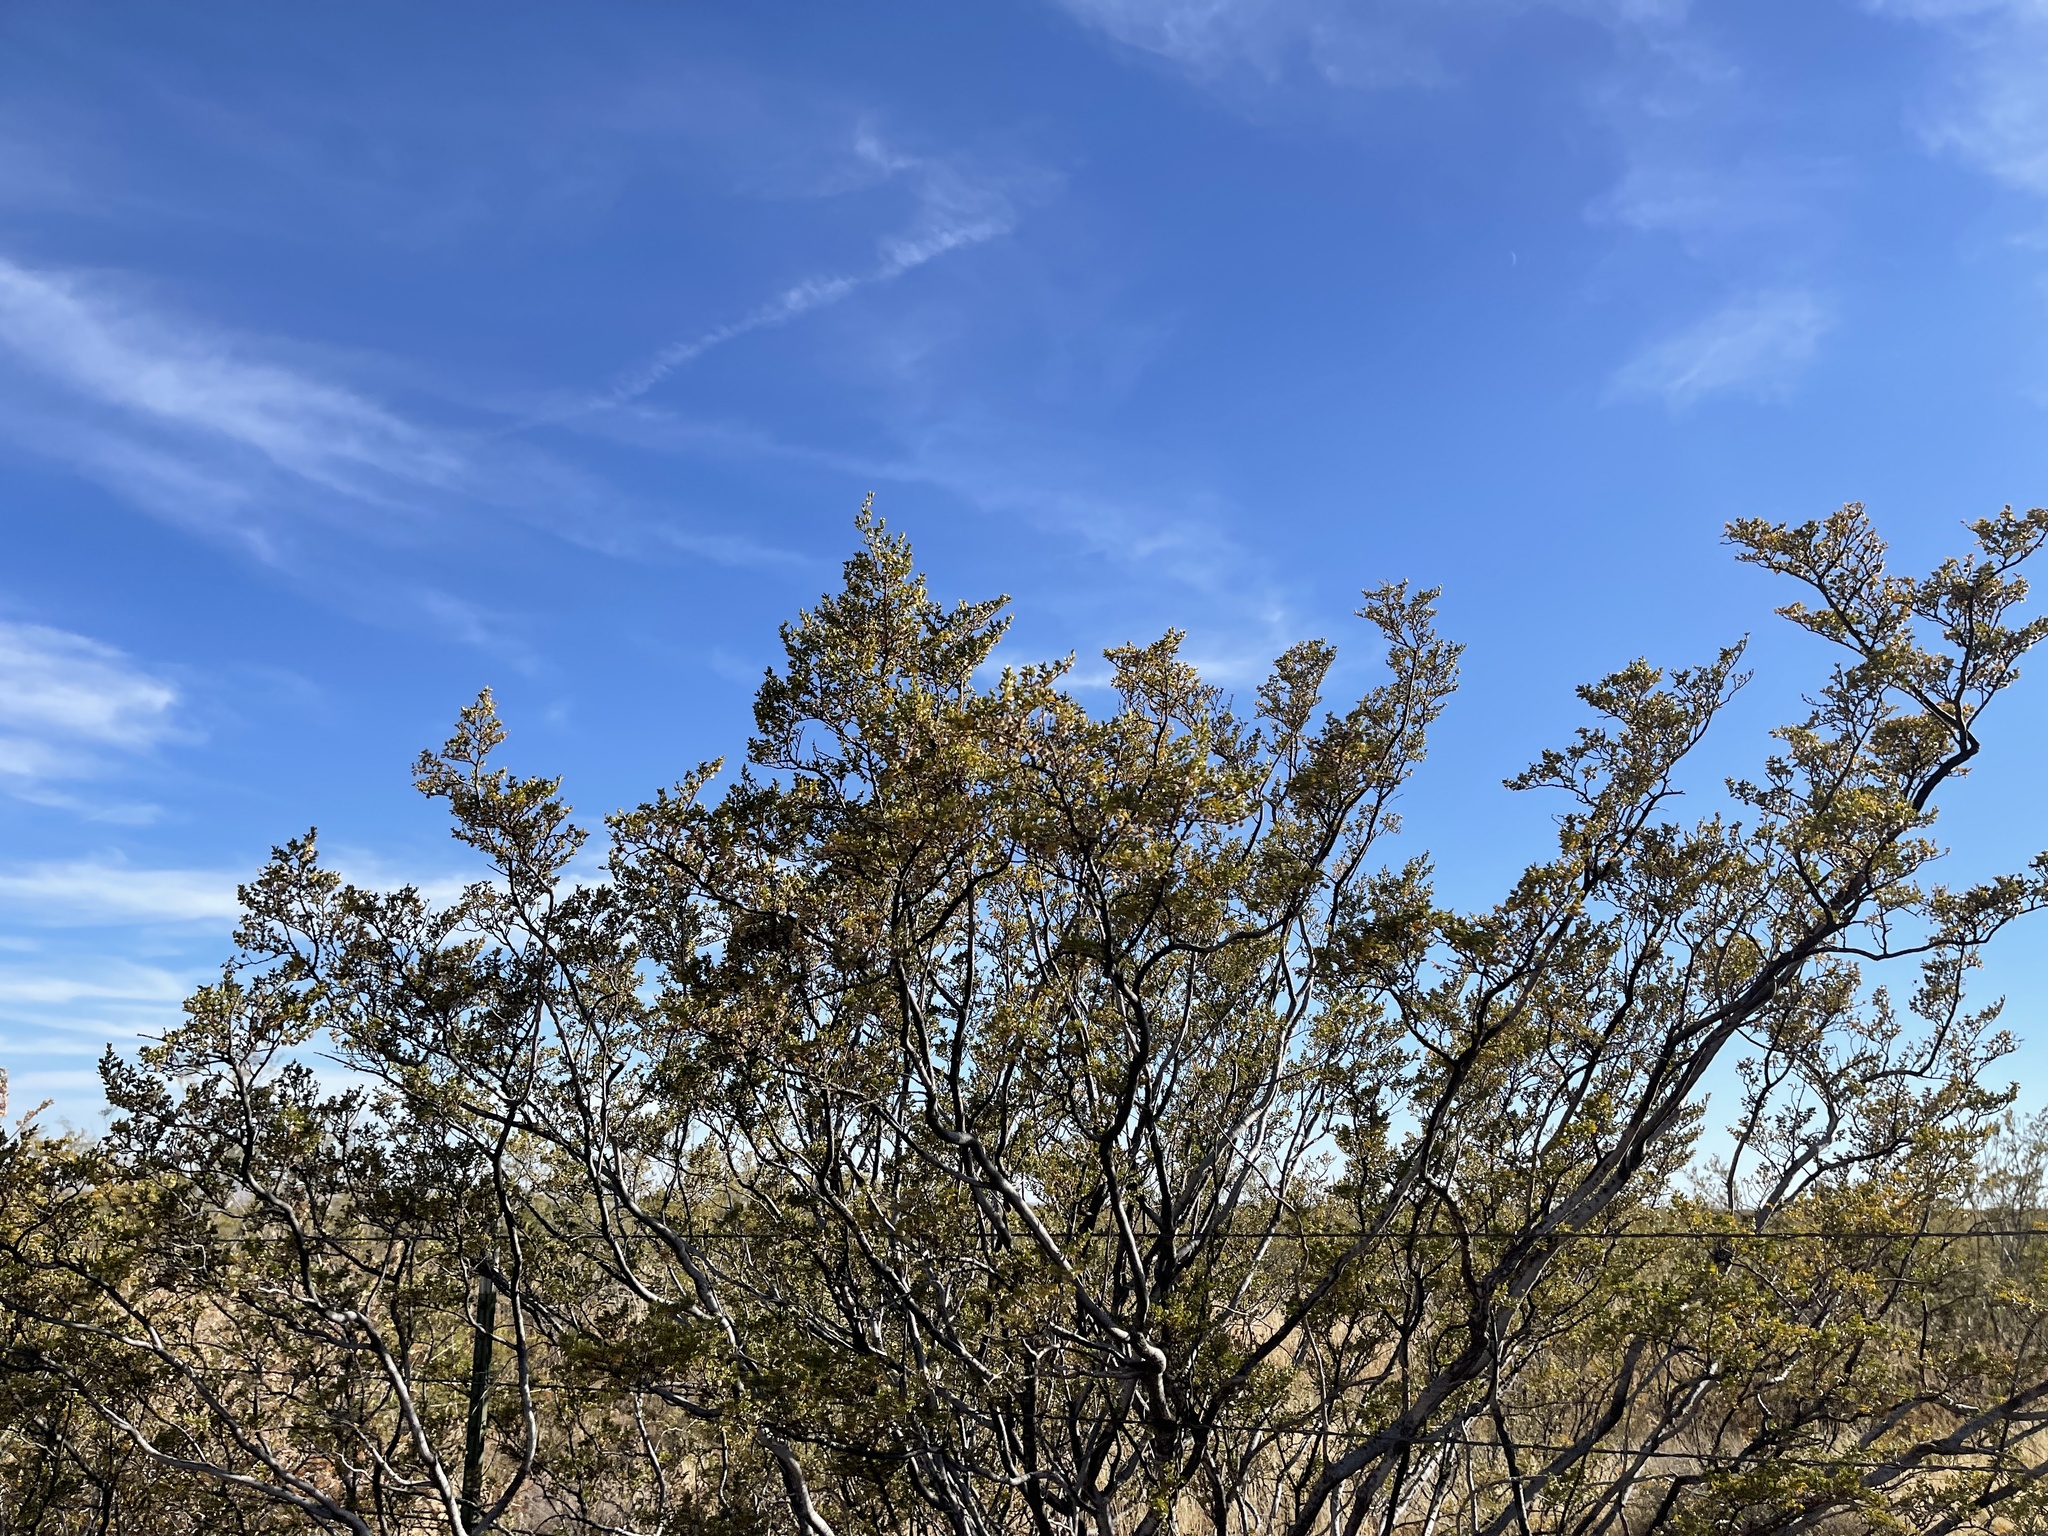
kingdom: Plantae
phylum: Tracheophyta
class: Magnoliopsida
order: Zygophyllales
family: Zygophyllaceae
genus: Larrea
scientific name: Larrea tridentata
